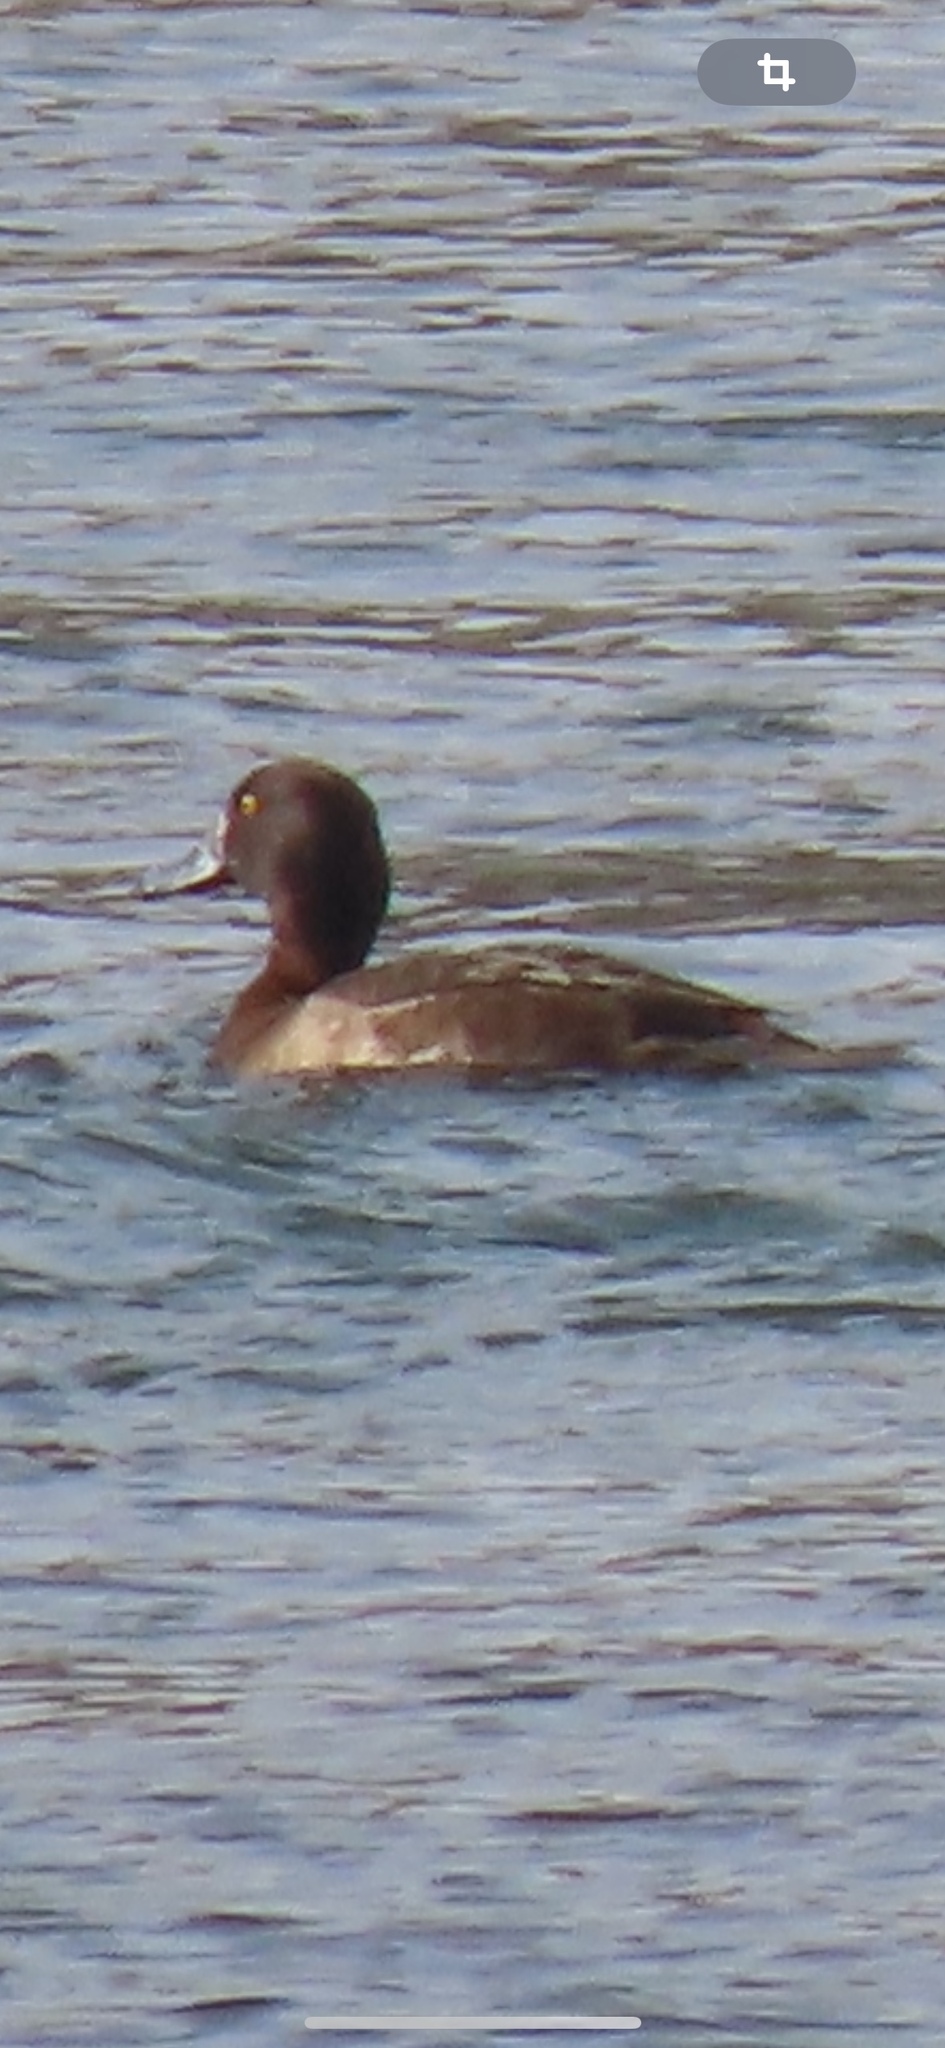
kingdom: Animalia
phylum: Chordata
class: Aves
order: Anseriformes
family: Anatidae
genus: Aythya
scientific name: Aythya fuligula
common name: Tufted duck
